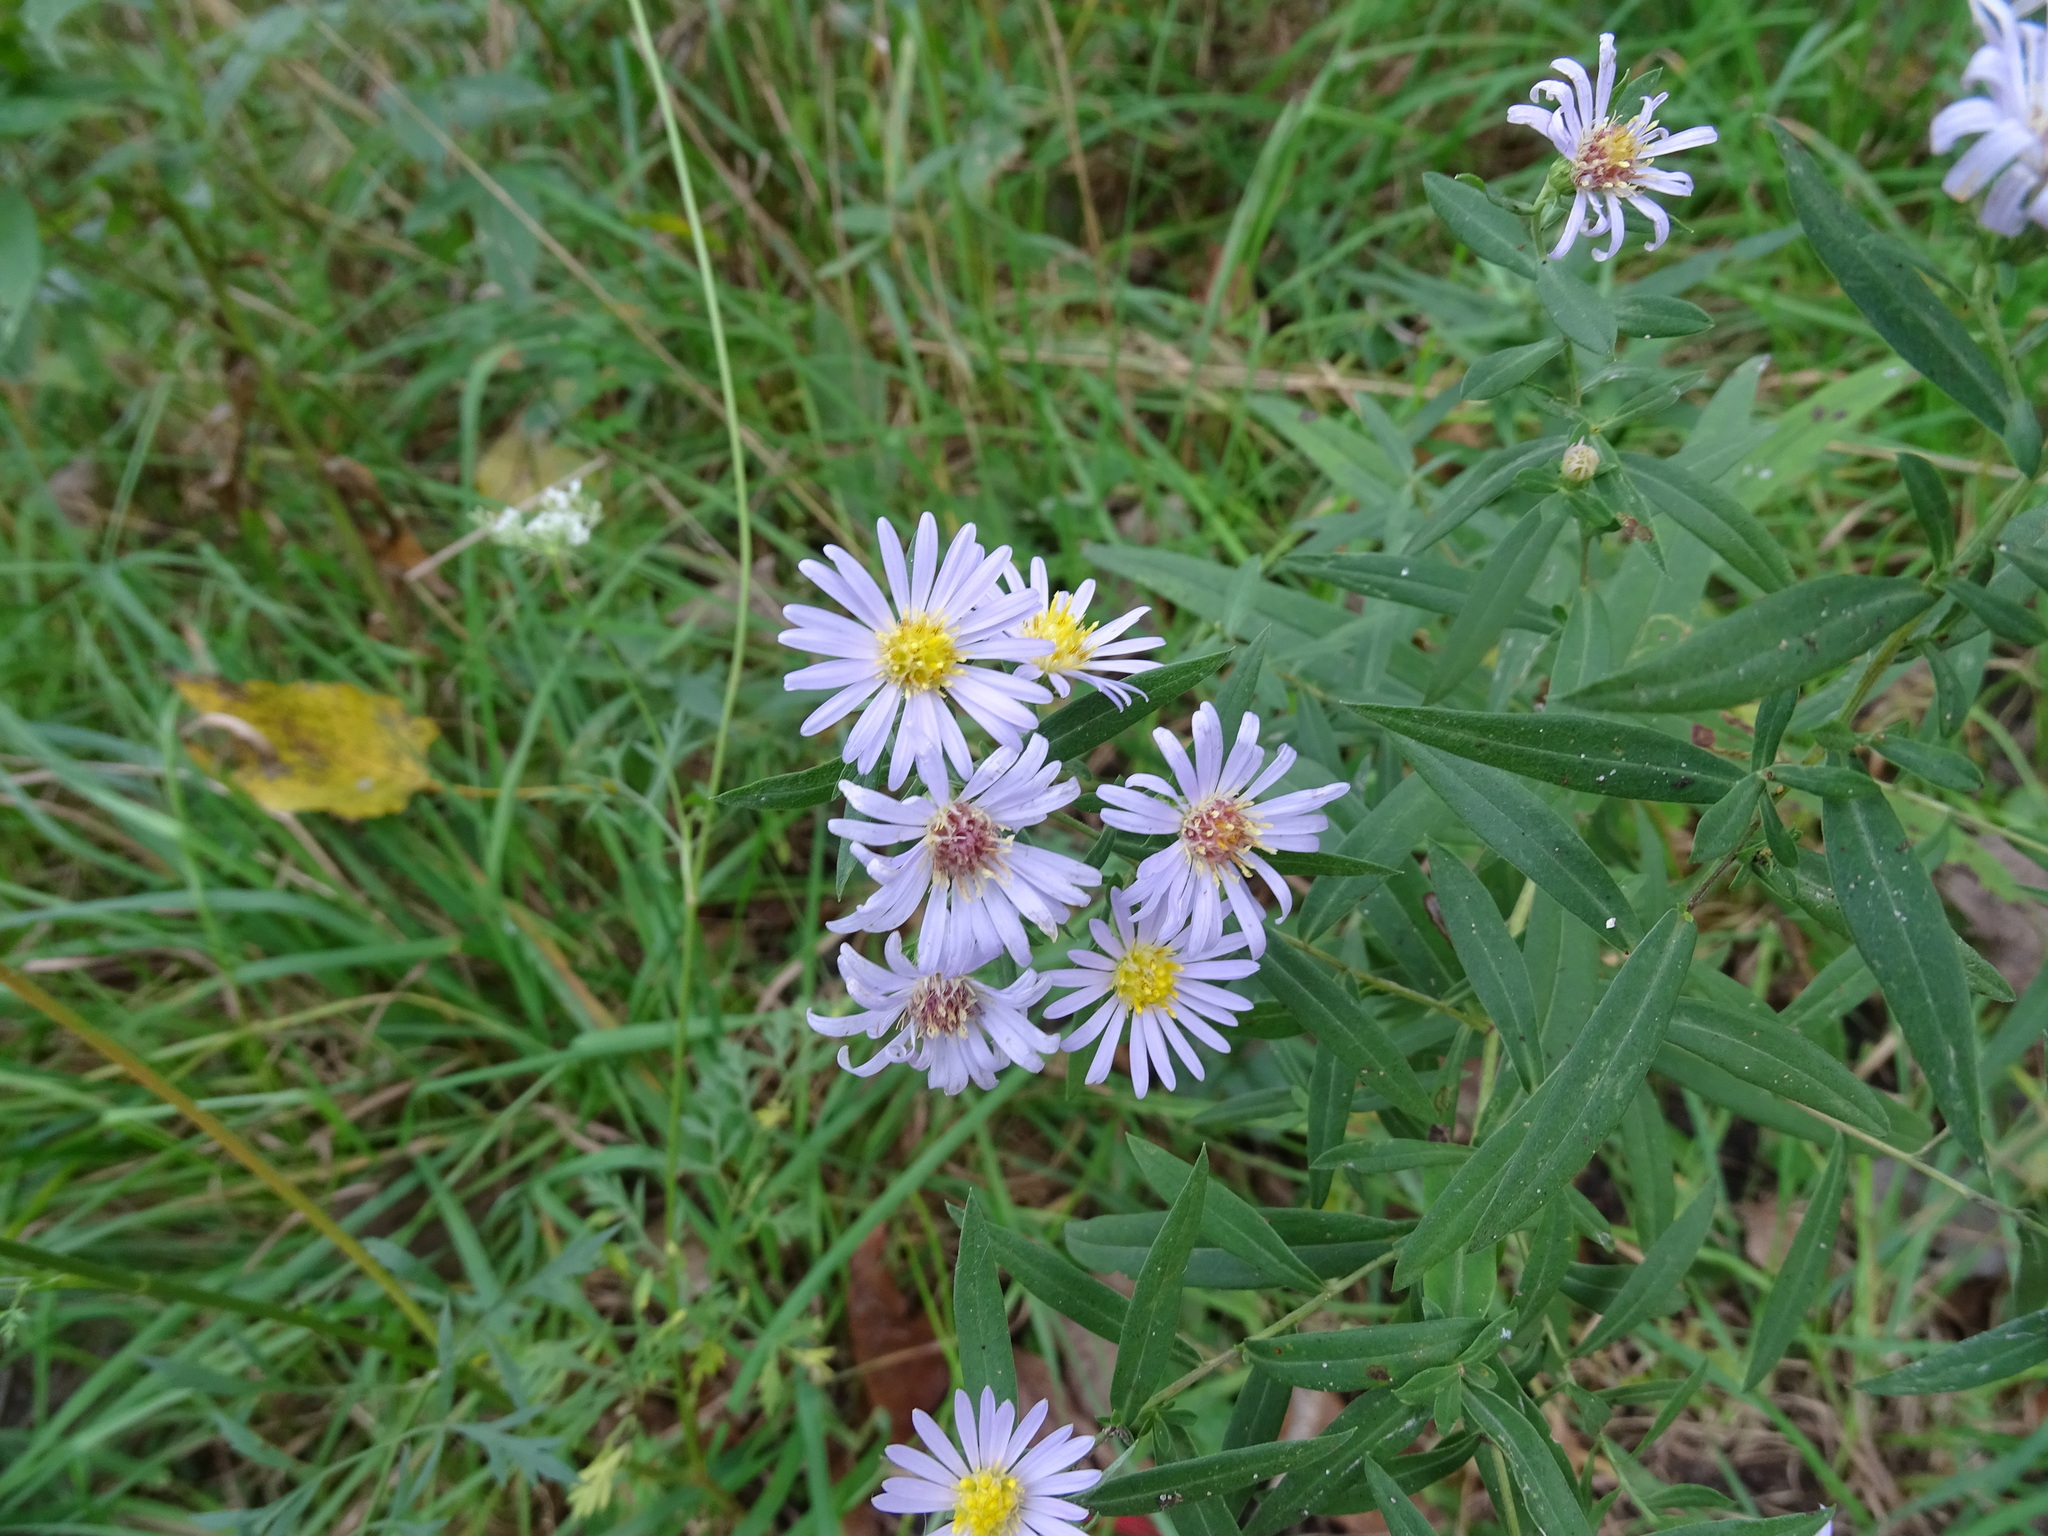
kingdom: Plantae
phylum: Tracheophyta
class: Magnoliopsida
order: Asterales
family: Asteraceae
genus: Symphyotrichum
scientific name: Symphyotrichum praealtum
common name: Willow aster
